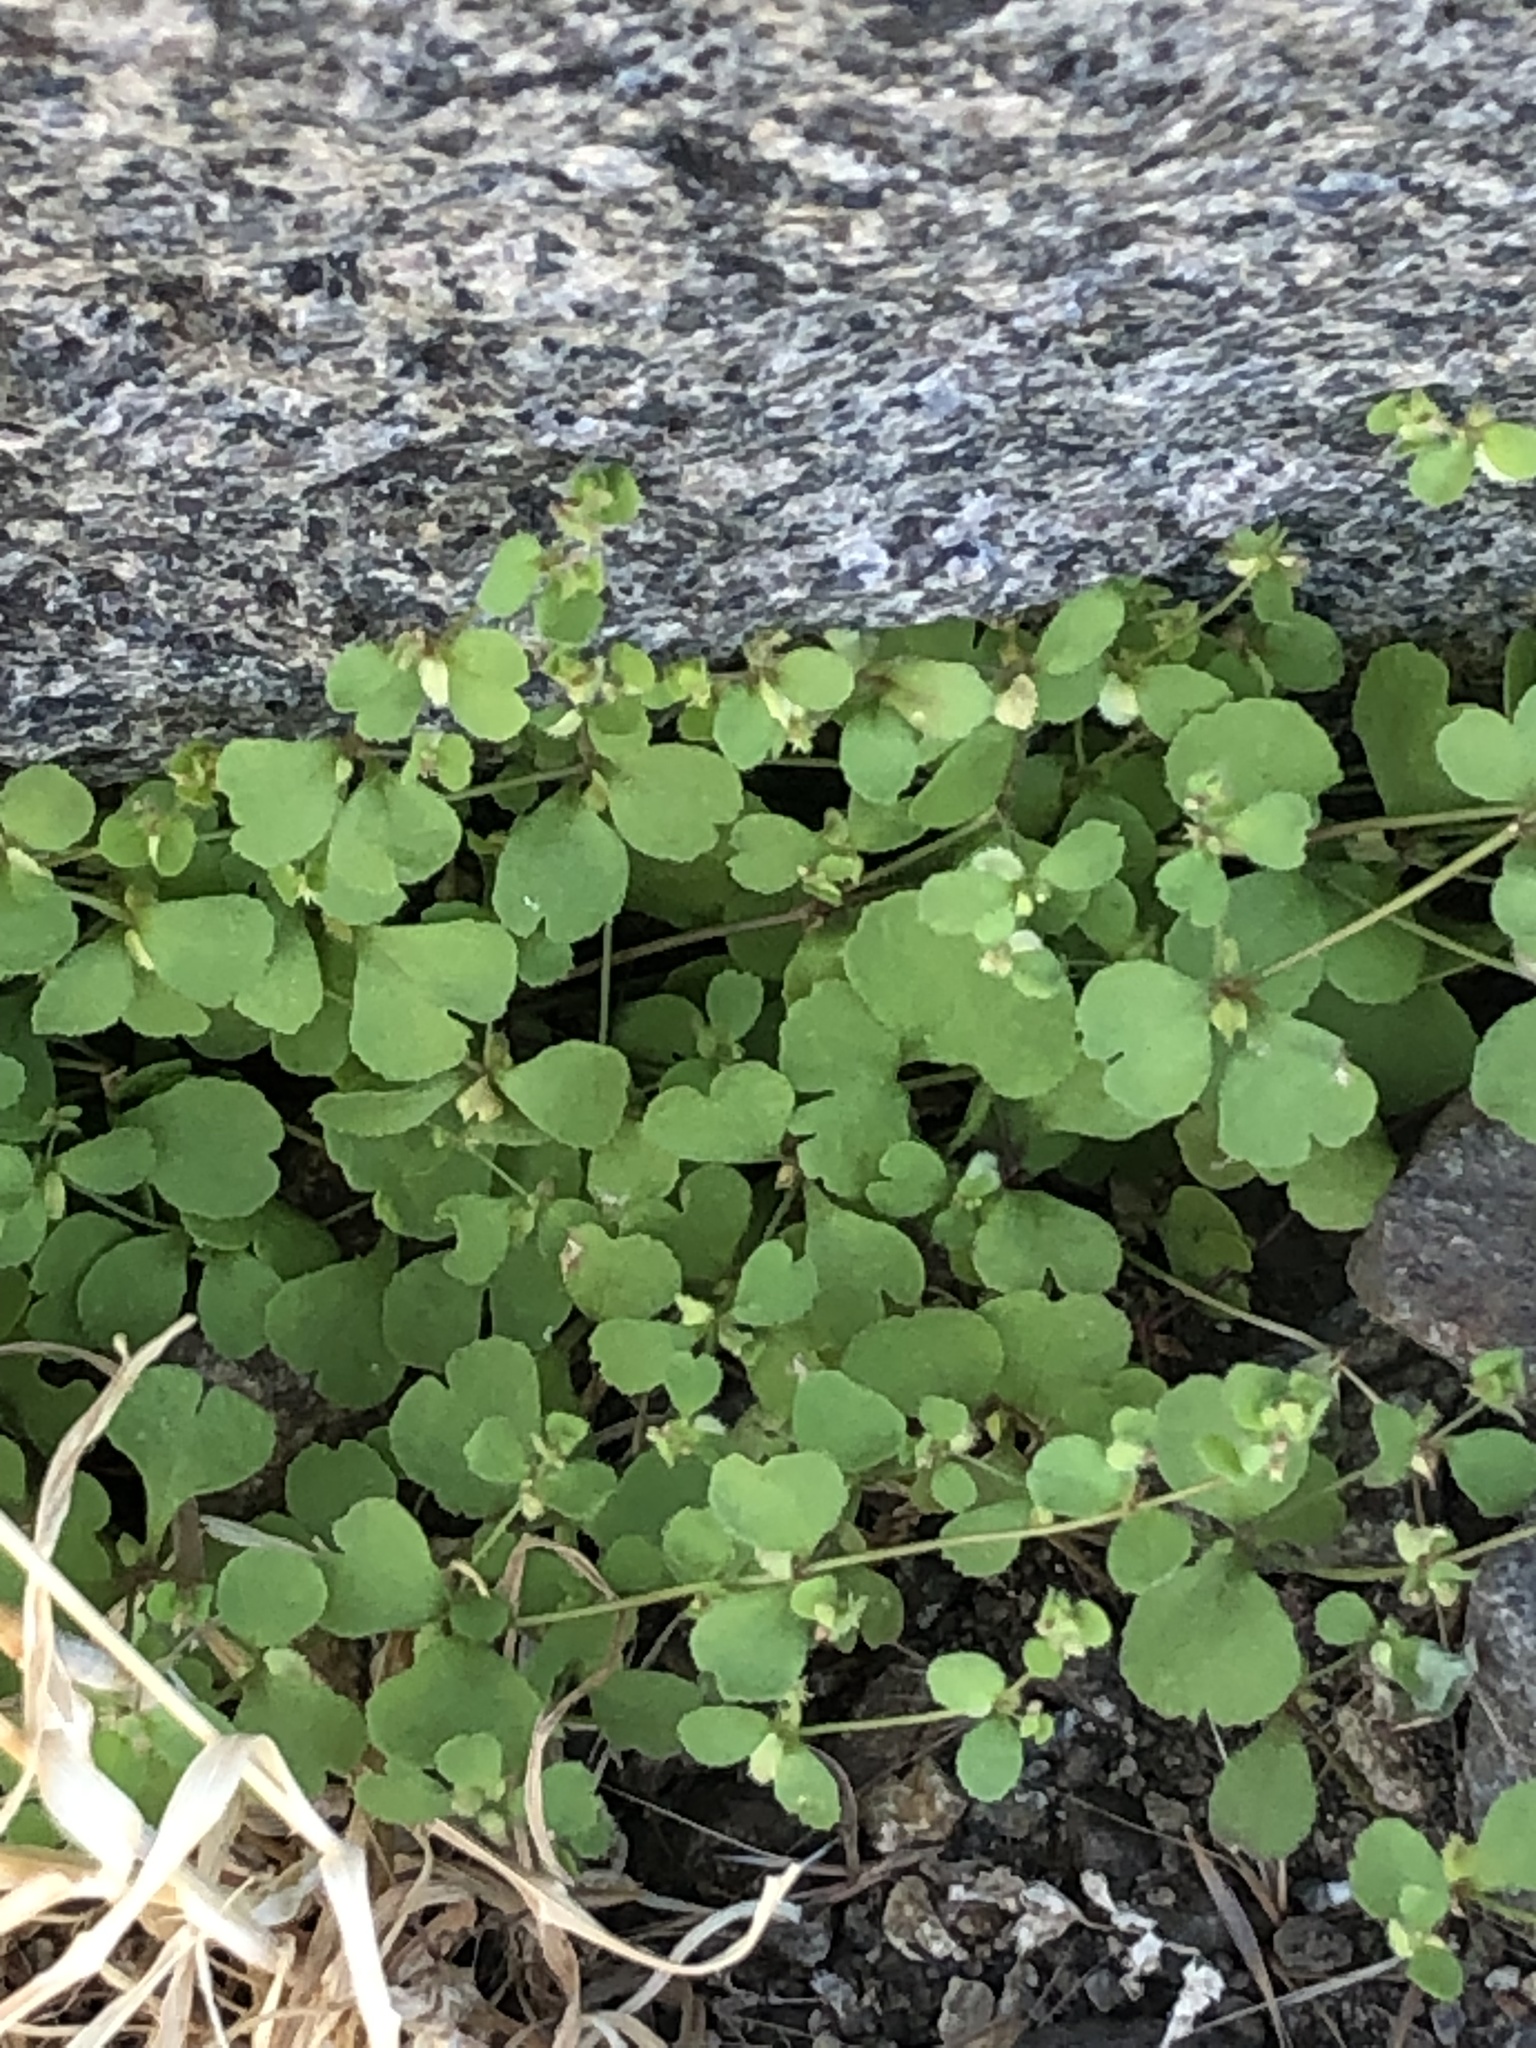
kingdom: Plantae
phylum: Tracheophyta
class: Magnoliopsida
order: Caryophyllales
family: Polygonaceae
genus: Pterostegia
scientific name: Pterostegia drymarioides
